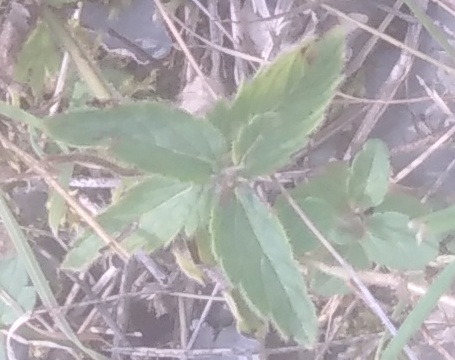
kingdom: Plantae
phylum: Tracheophyta
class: Magnoliopsida
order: Lamiales
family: Plantaginaceae
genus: Veronica
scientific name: Veronica teucrium
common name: Large speedwell
